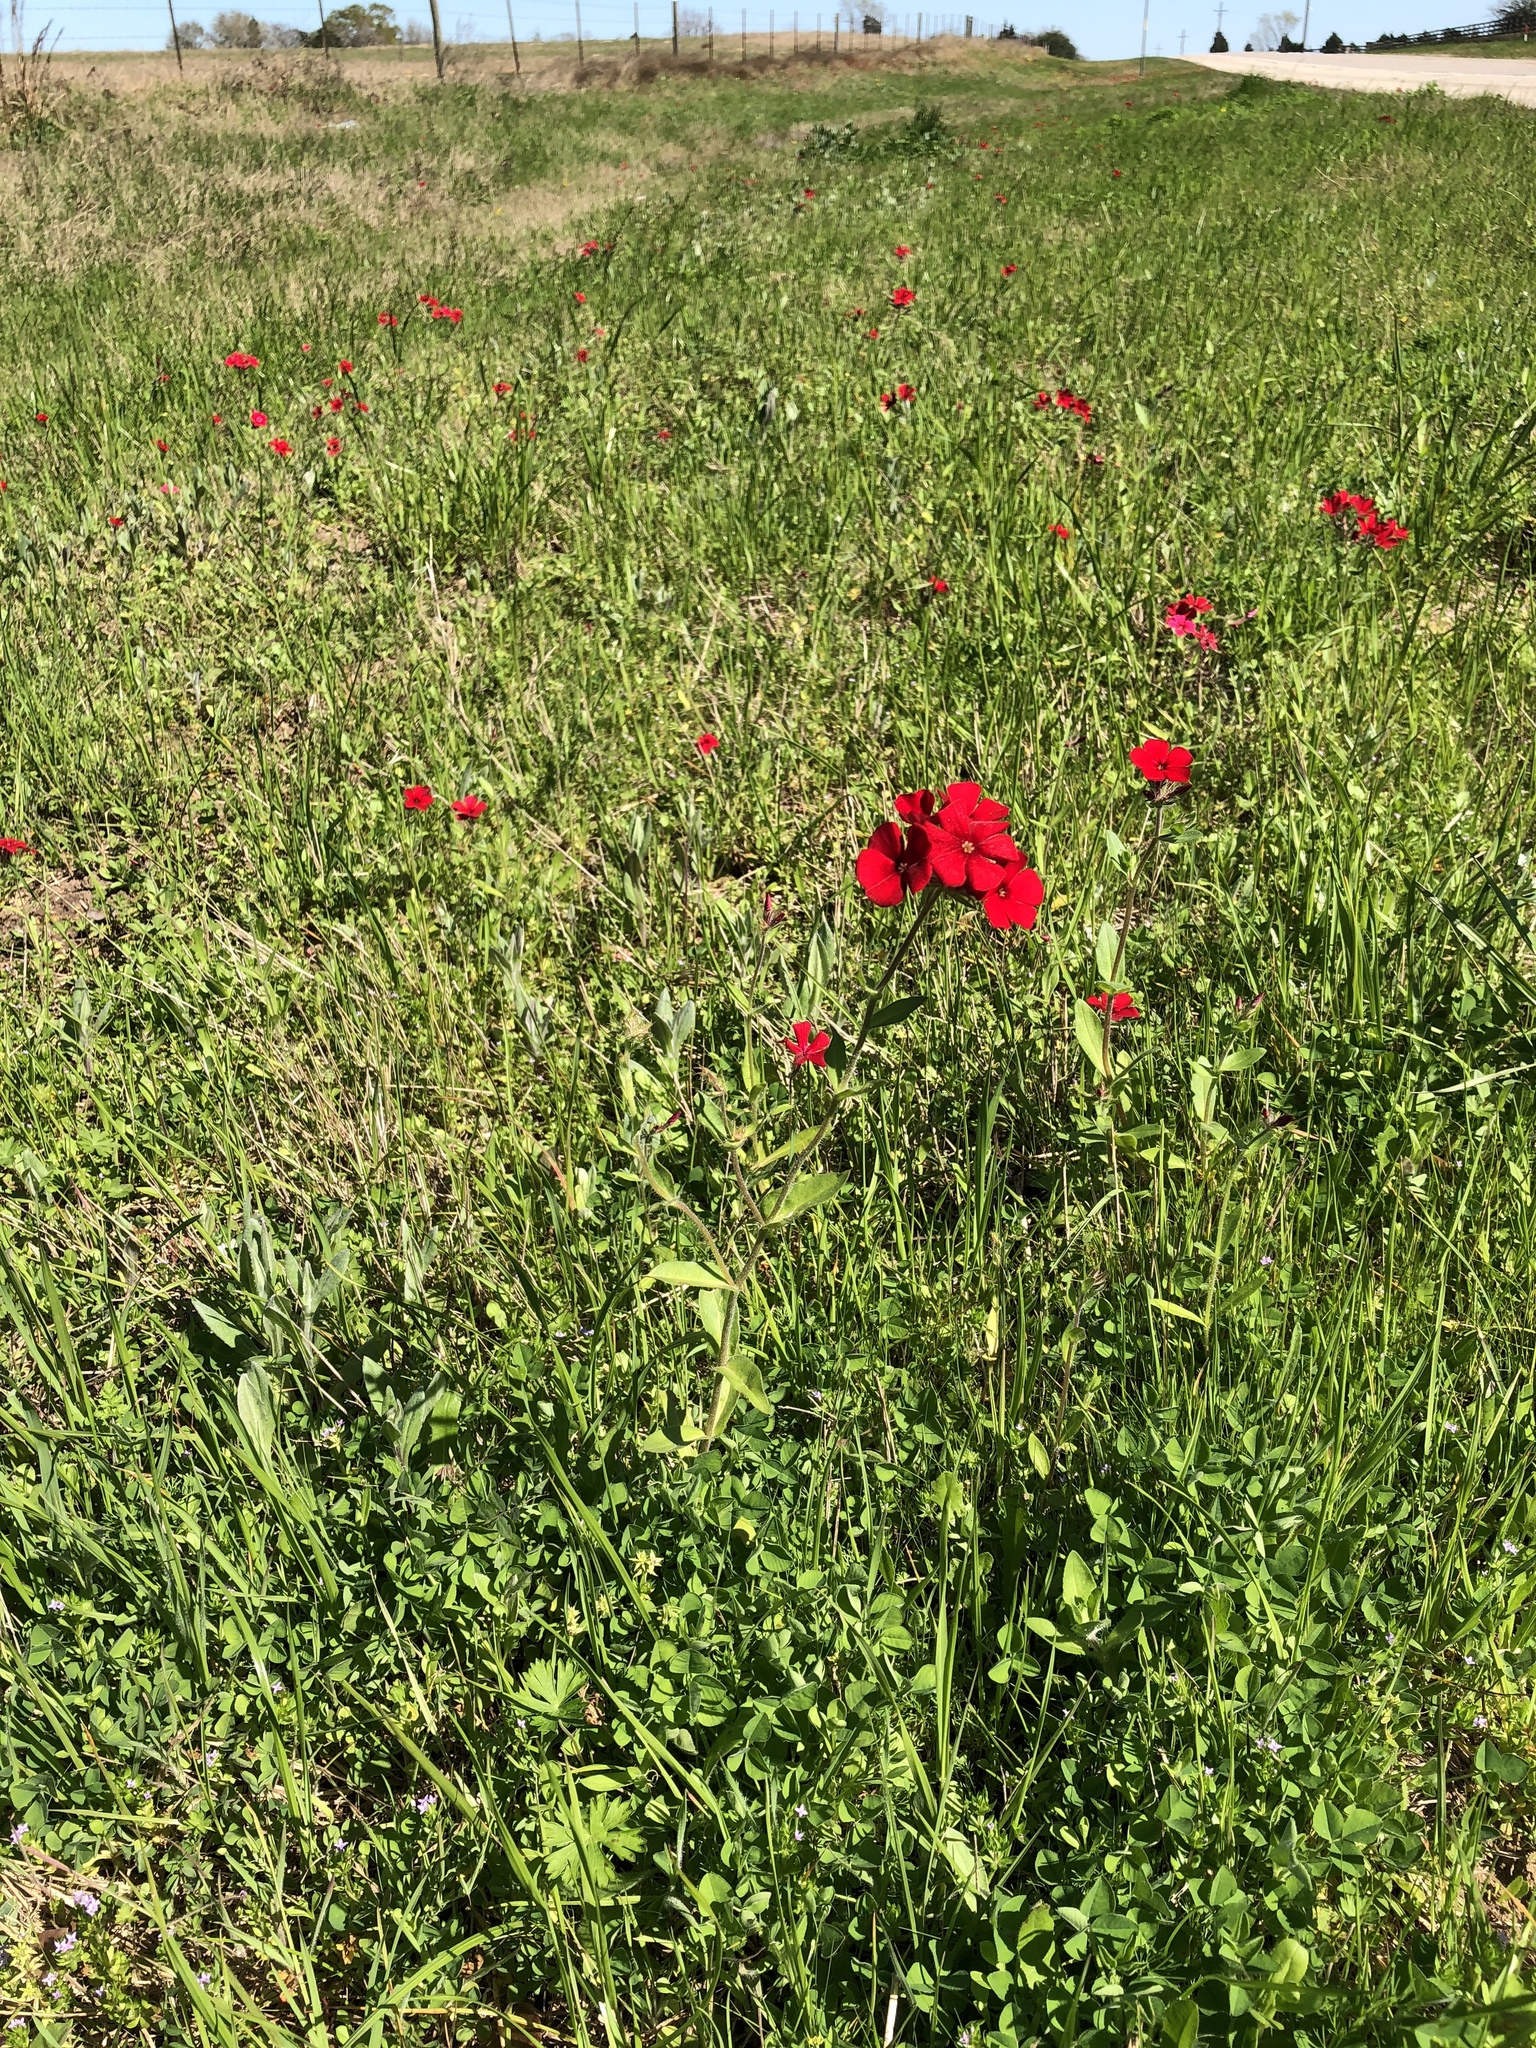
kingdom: Plantae
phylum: Tracheophyta
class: Magnoliopsida
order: Ericales
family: Polemoniaceae
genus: Phlox
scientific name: Phlox drummondii
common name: Drummond's phlox
